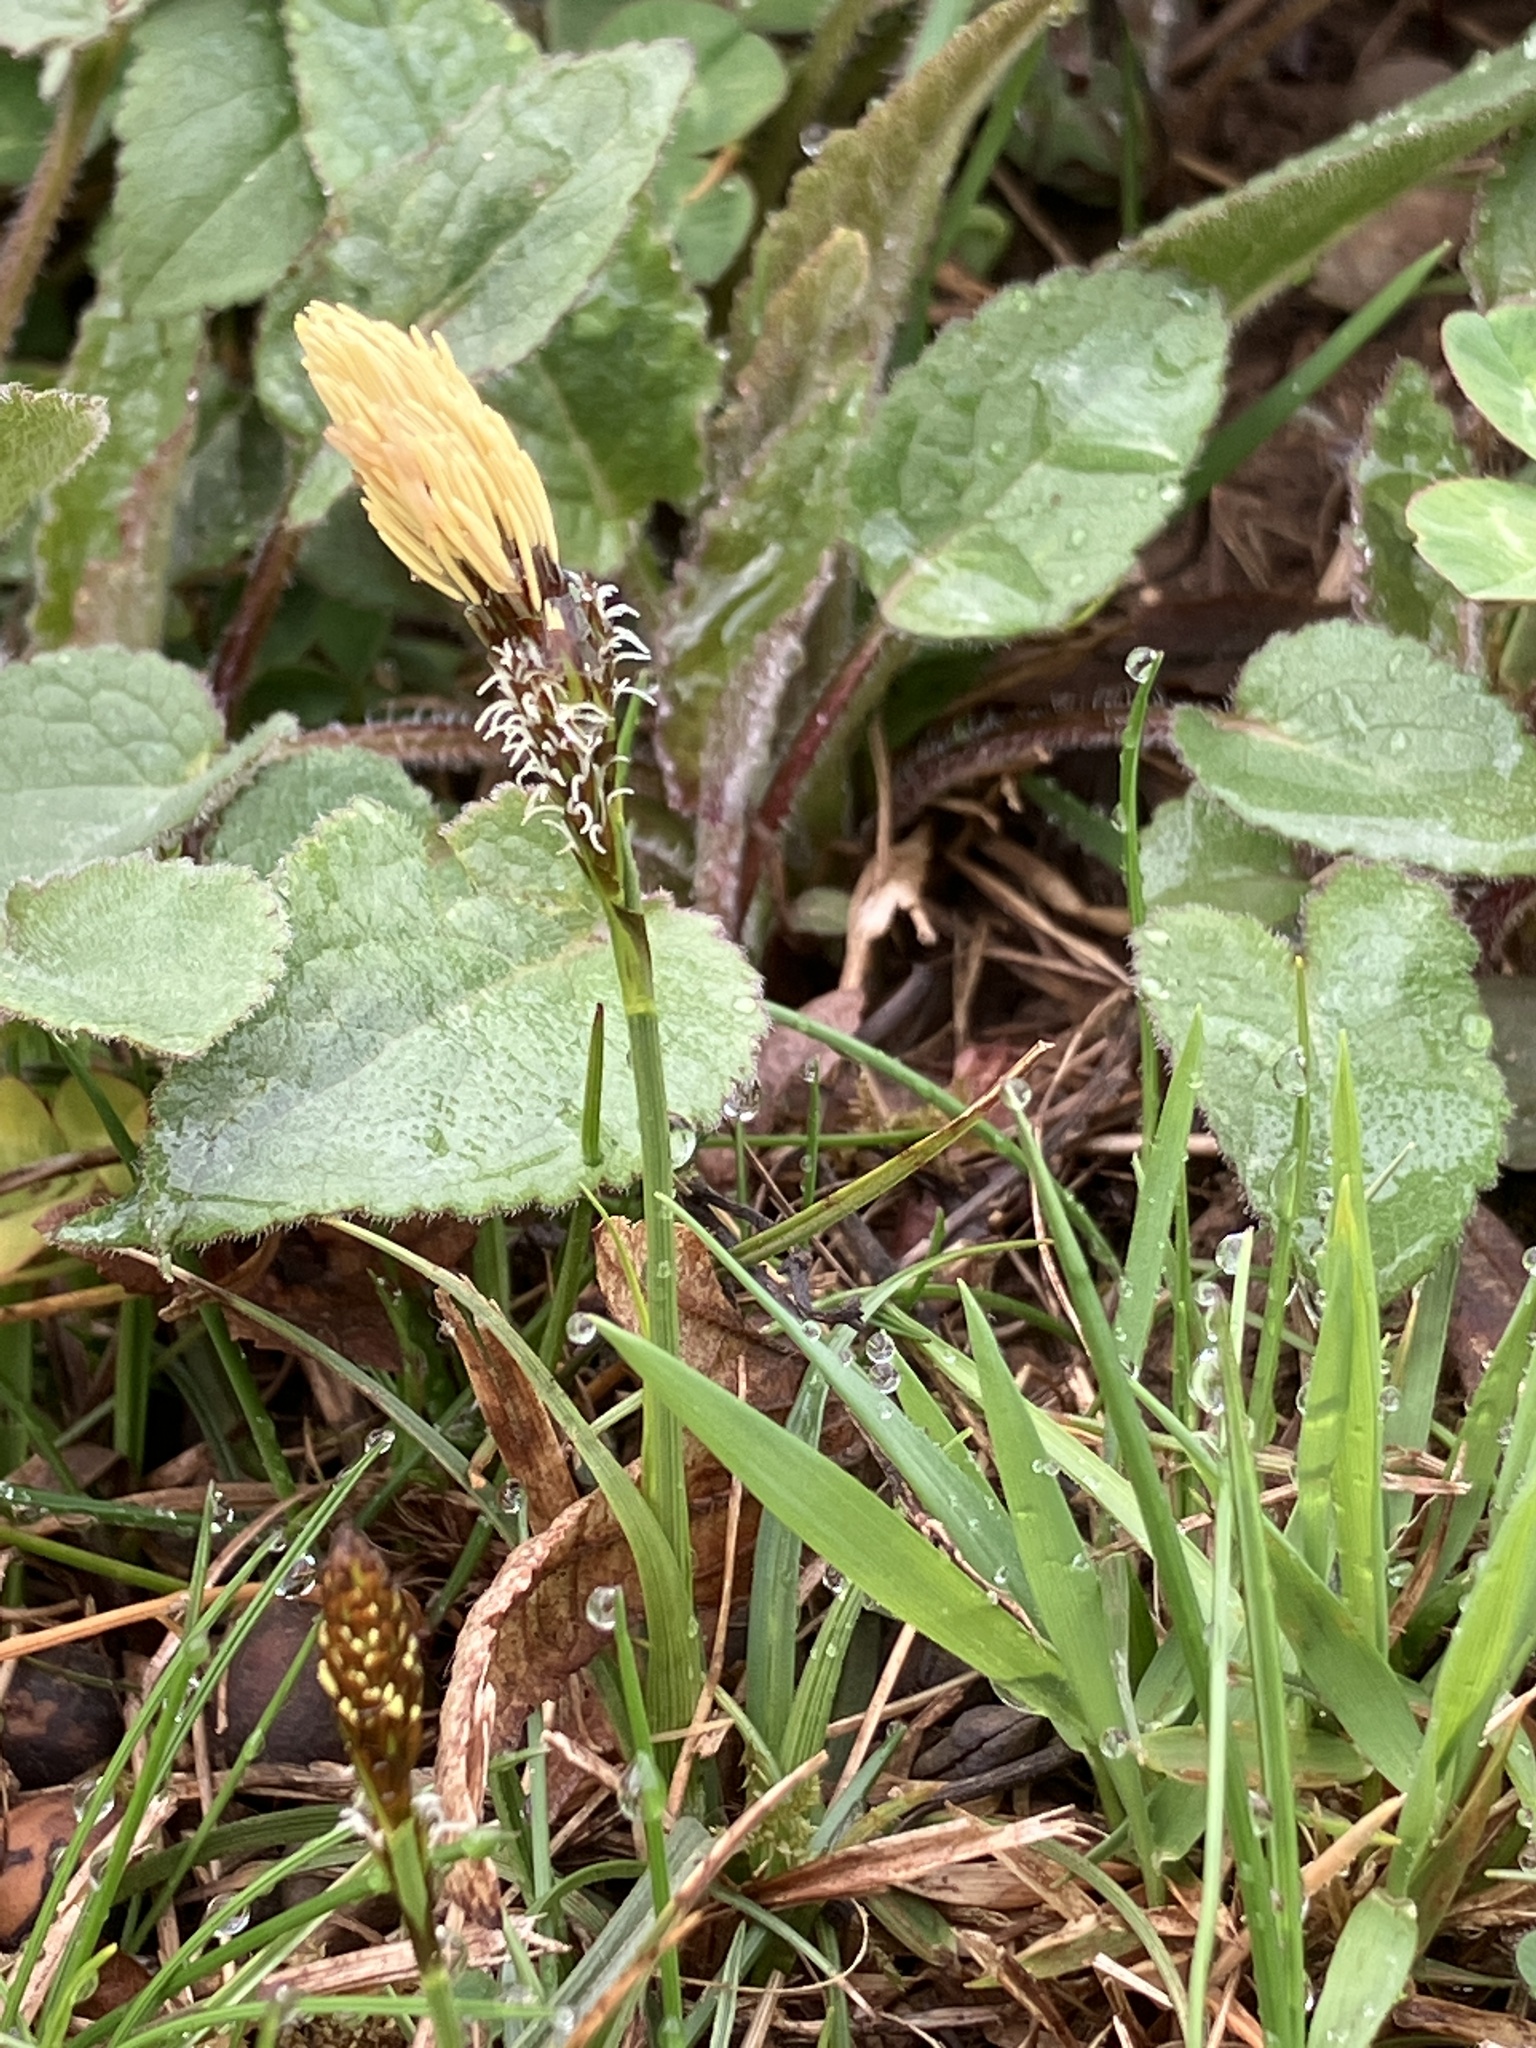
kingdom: Plantae
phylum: Tracheophyta
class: Liliopsida
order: Poales
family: Cyperaceae
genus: Carex
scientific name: Carex caryophyllea
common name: Spring sedge
